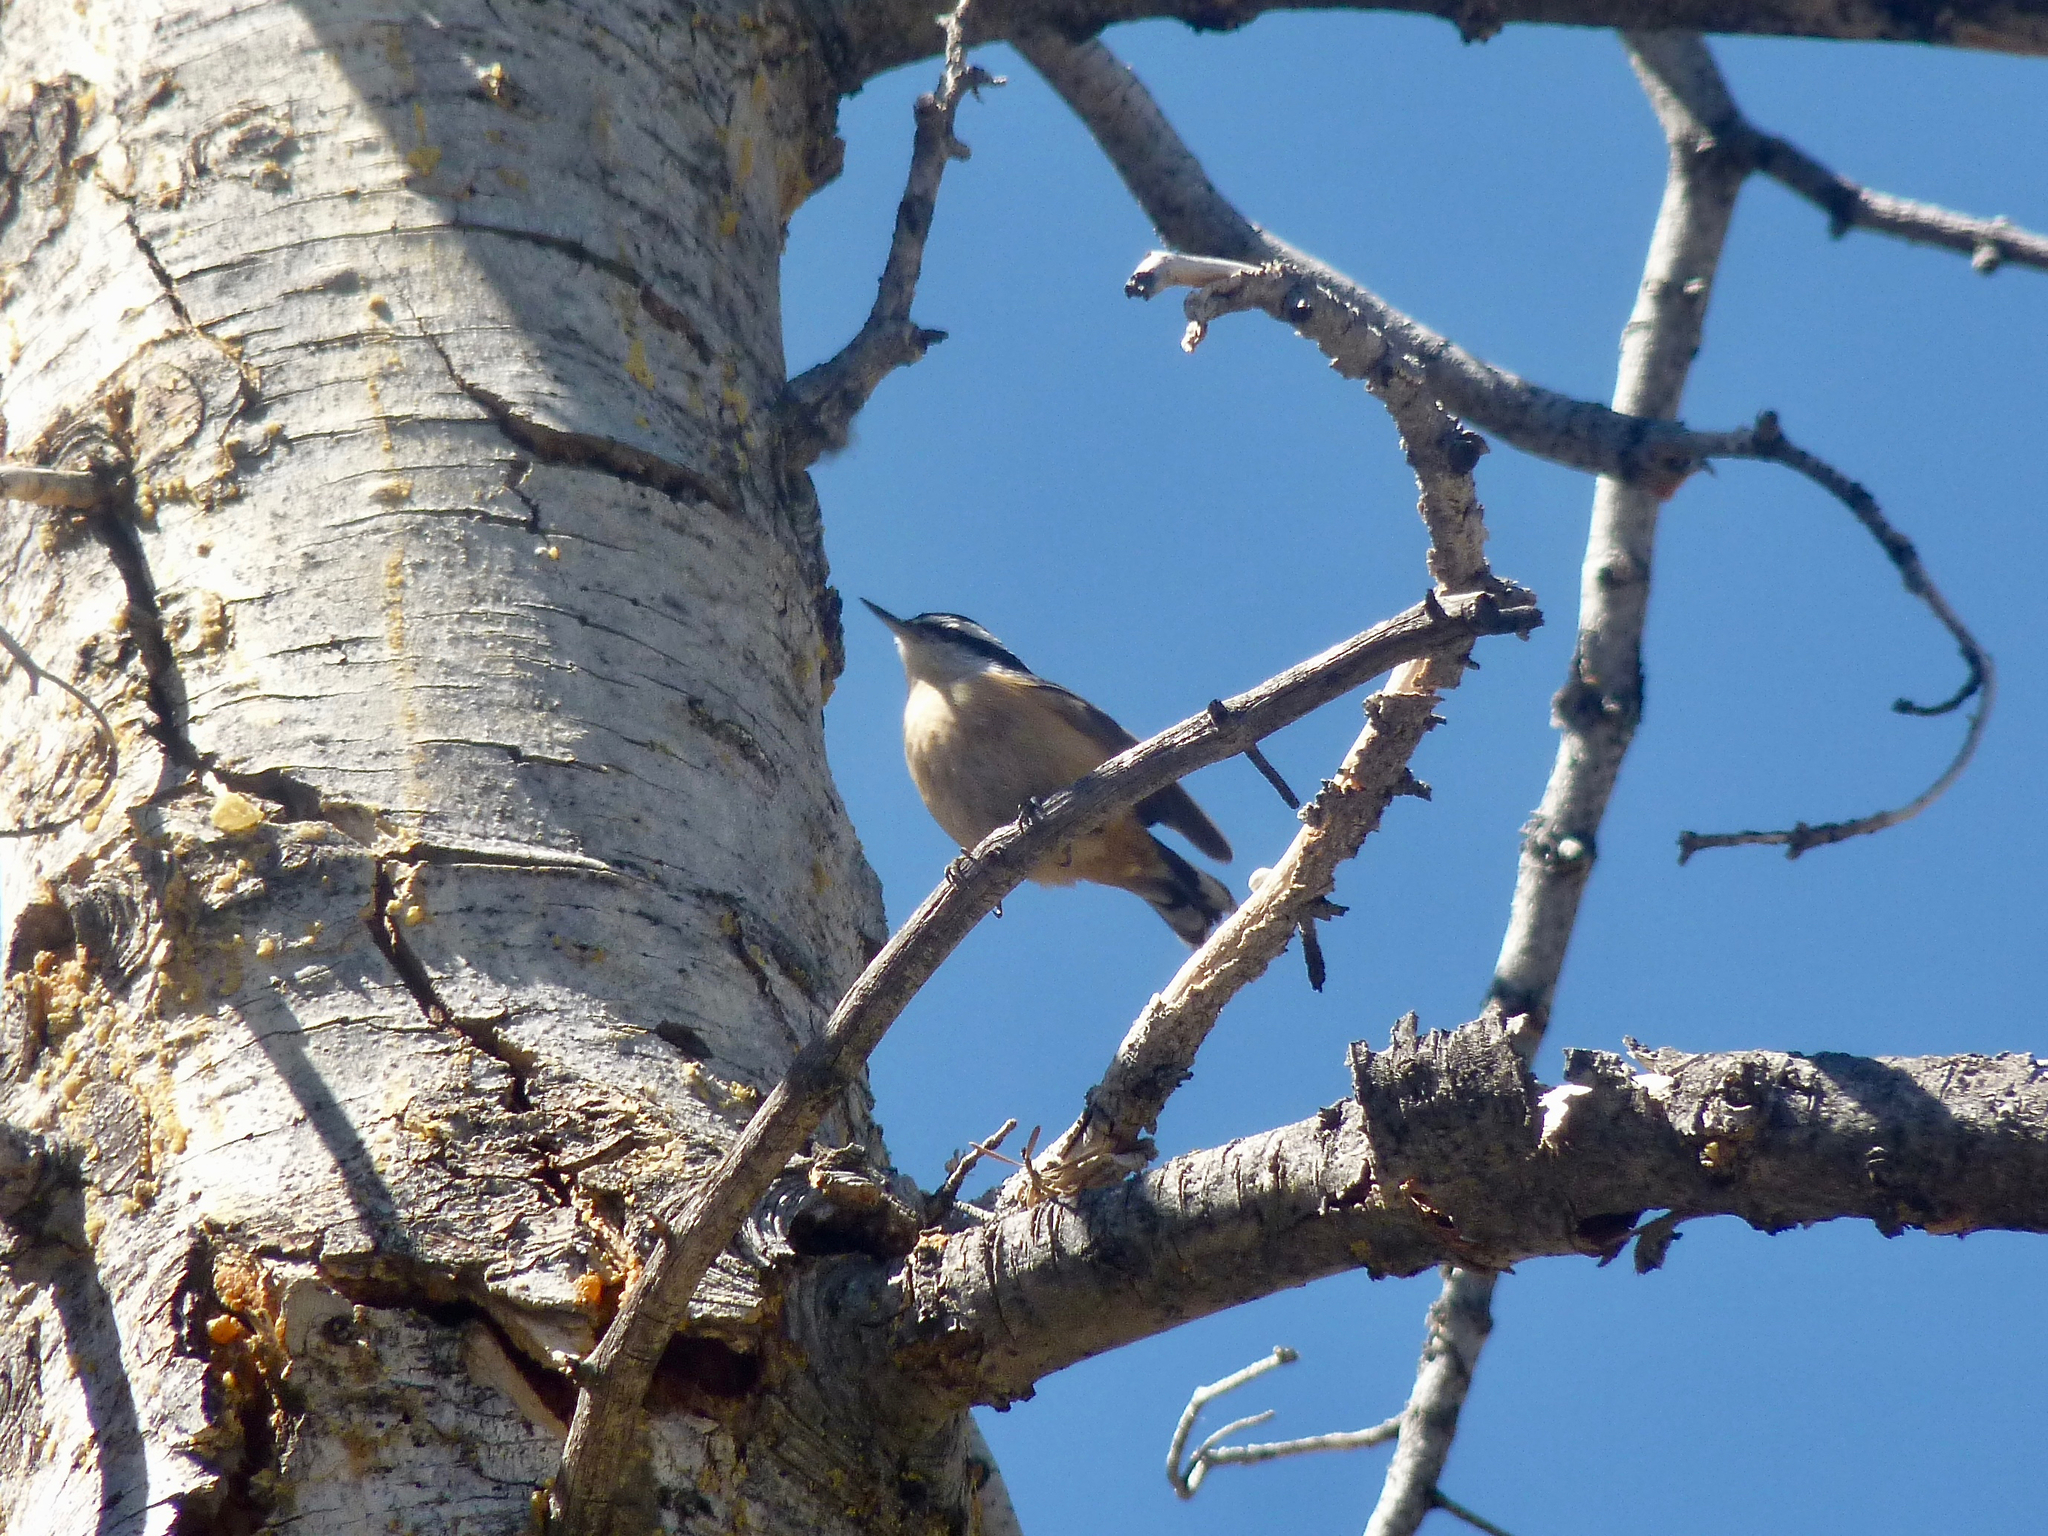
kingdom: Animalia
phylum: Chordata
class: Aves
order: Passeriformes
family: Sittidae
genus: Sitta
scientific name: Sitta canadensis
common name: Red-breasted nuthatch
